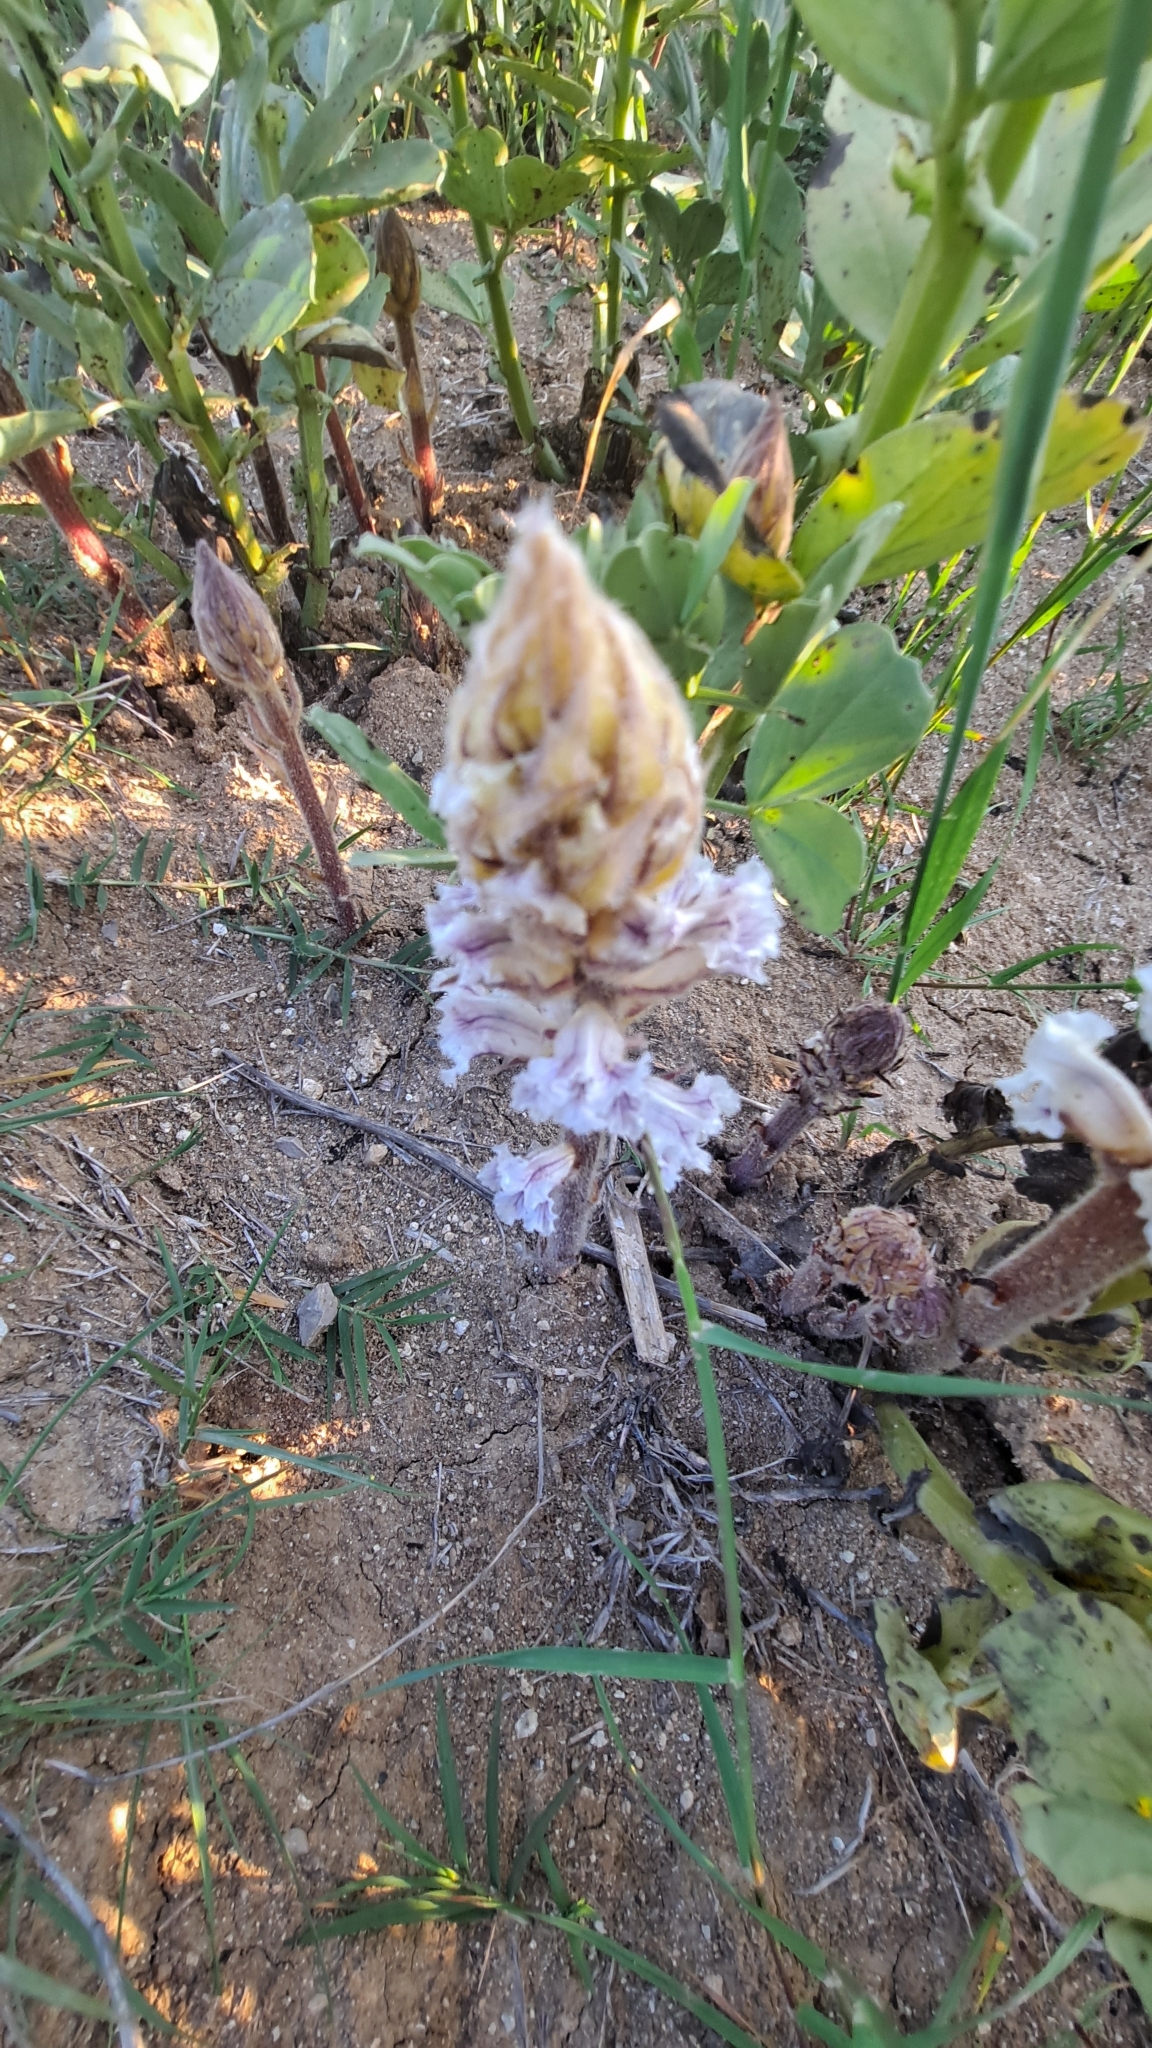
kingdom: Plantae
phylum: Tracheophyta
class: Magnoliopsida
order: Lamiales
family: Orobanchaceae
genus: Orobanche
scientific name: Orobanche crenata
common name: Bean broomrape
